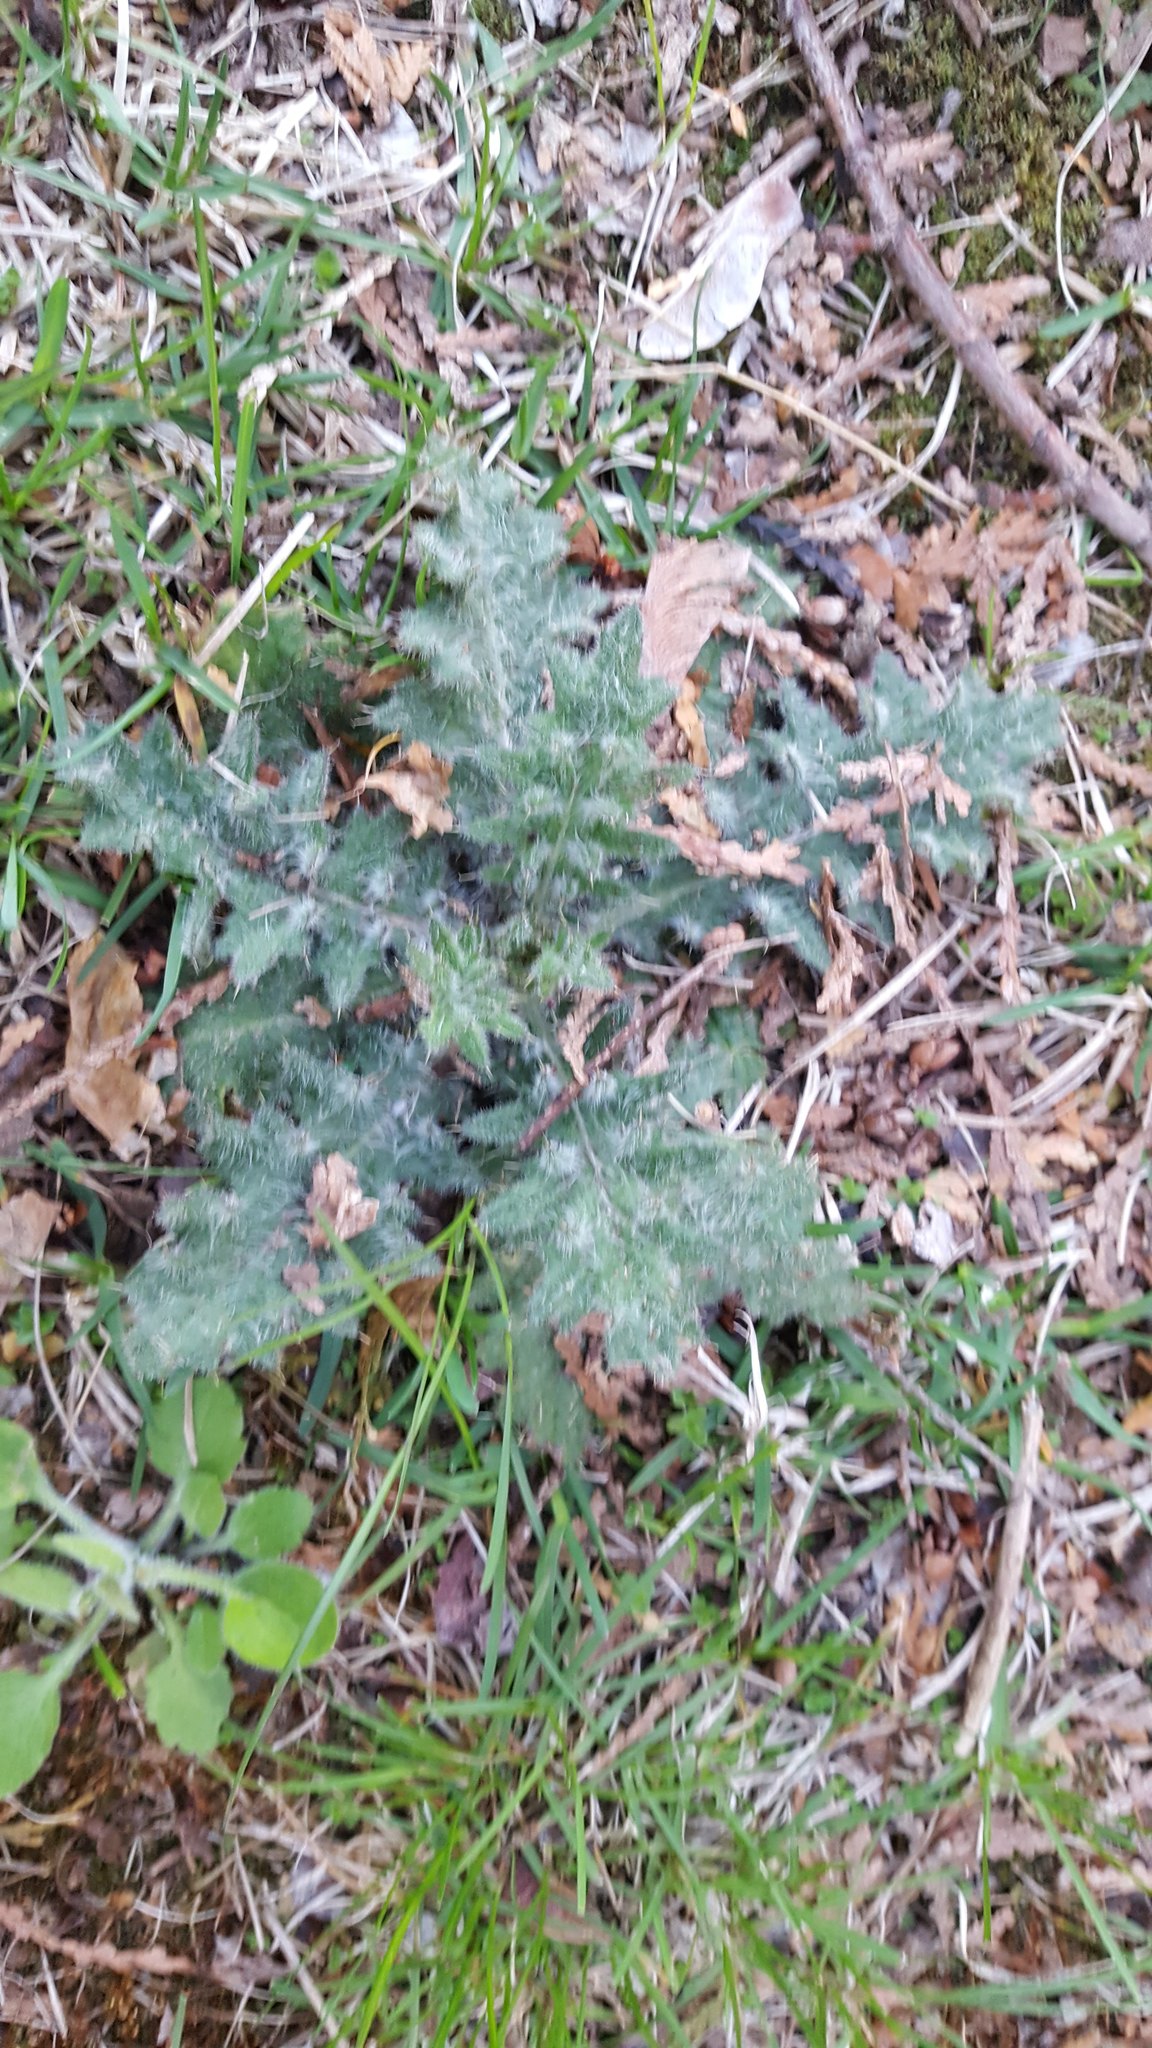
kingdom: Plantae
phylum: Tracheophyta
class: Magnoliopsida
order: Asterales
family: Asteraceae
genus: Cirsium
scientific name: Cirsium vulgare
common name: Bull thistle
